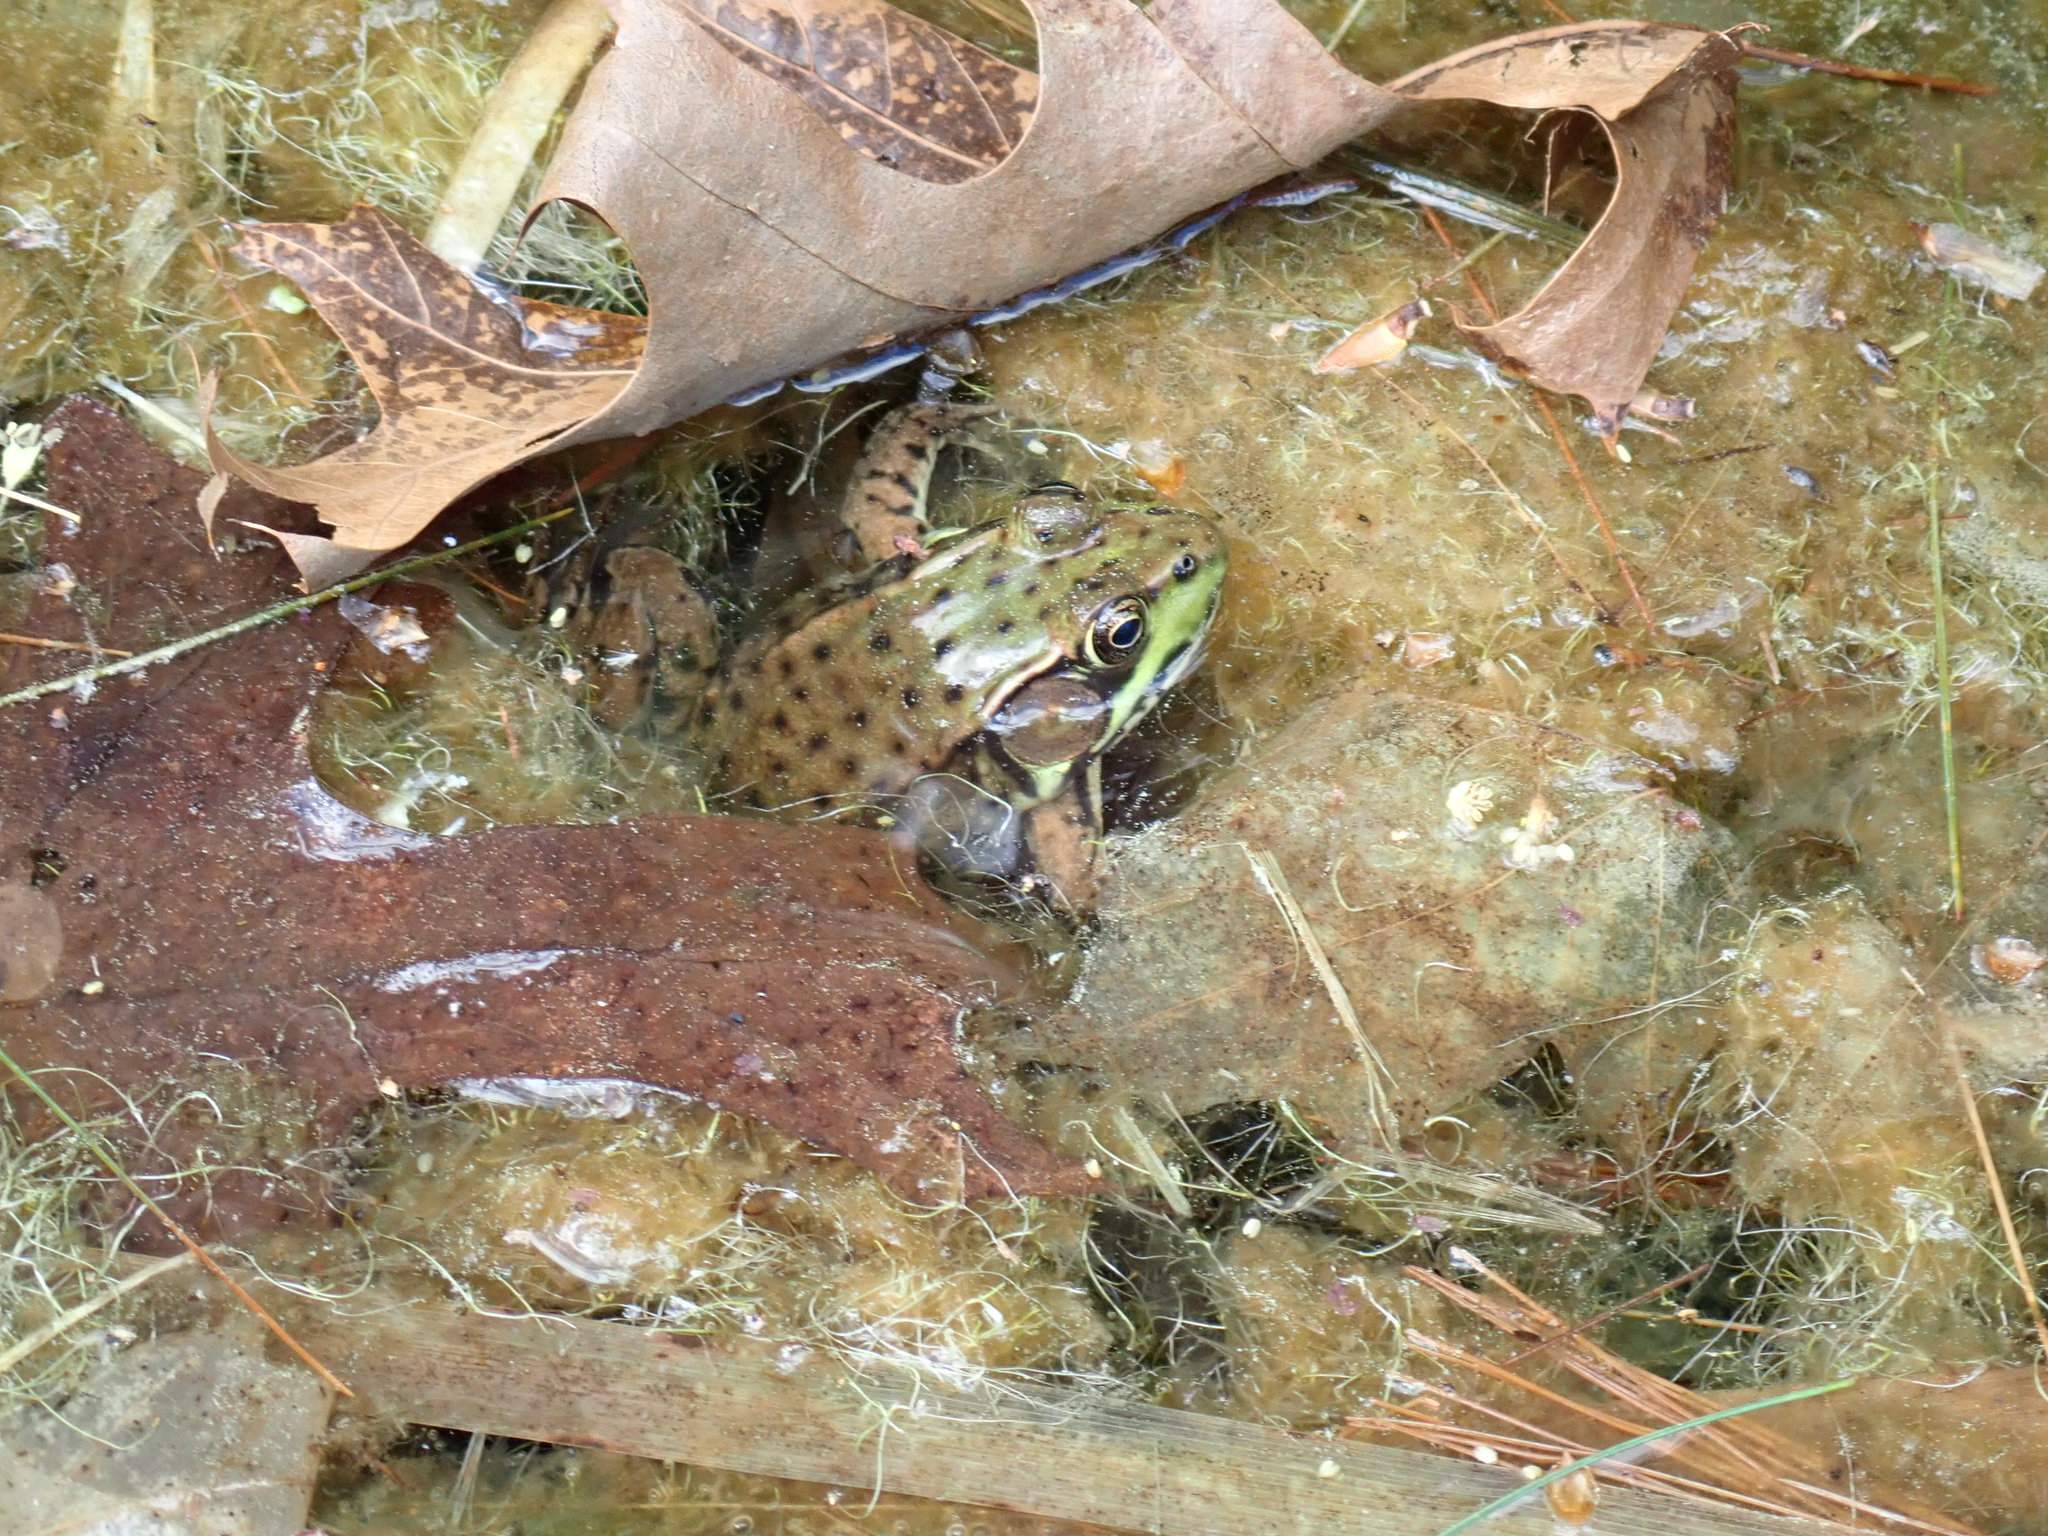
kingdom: Animalia
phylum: Chordata
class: Amphibia
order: Anura
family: Ranidae
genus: Lithobates
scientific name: Lithobates clamitans
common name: Green frog
